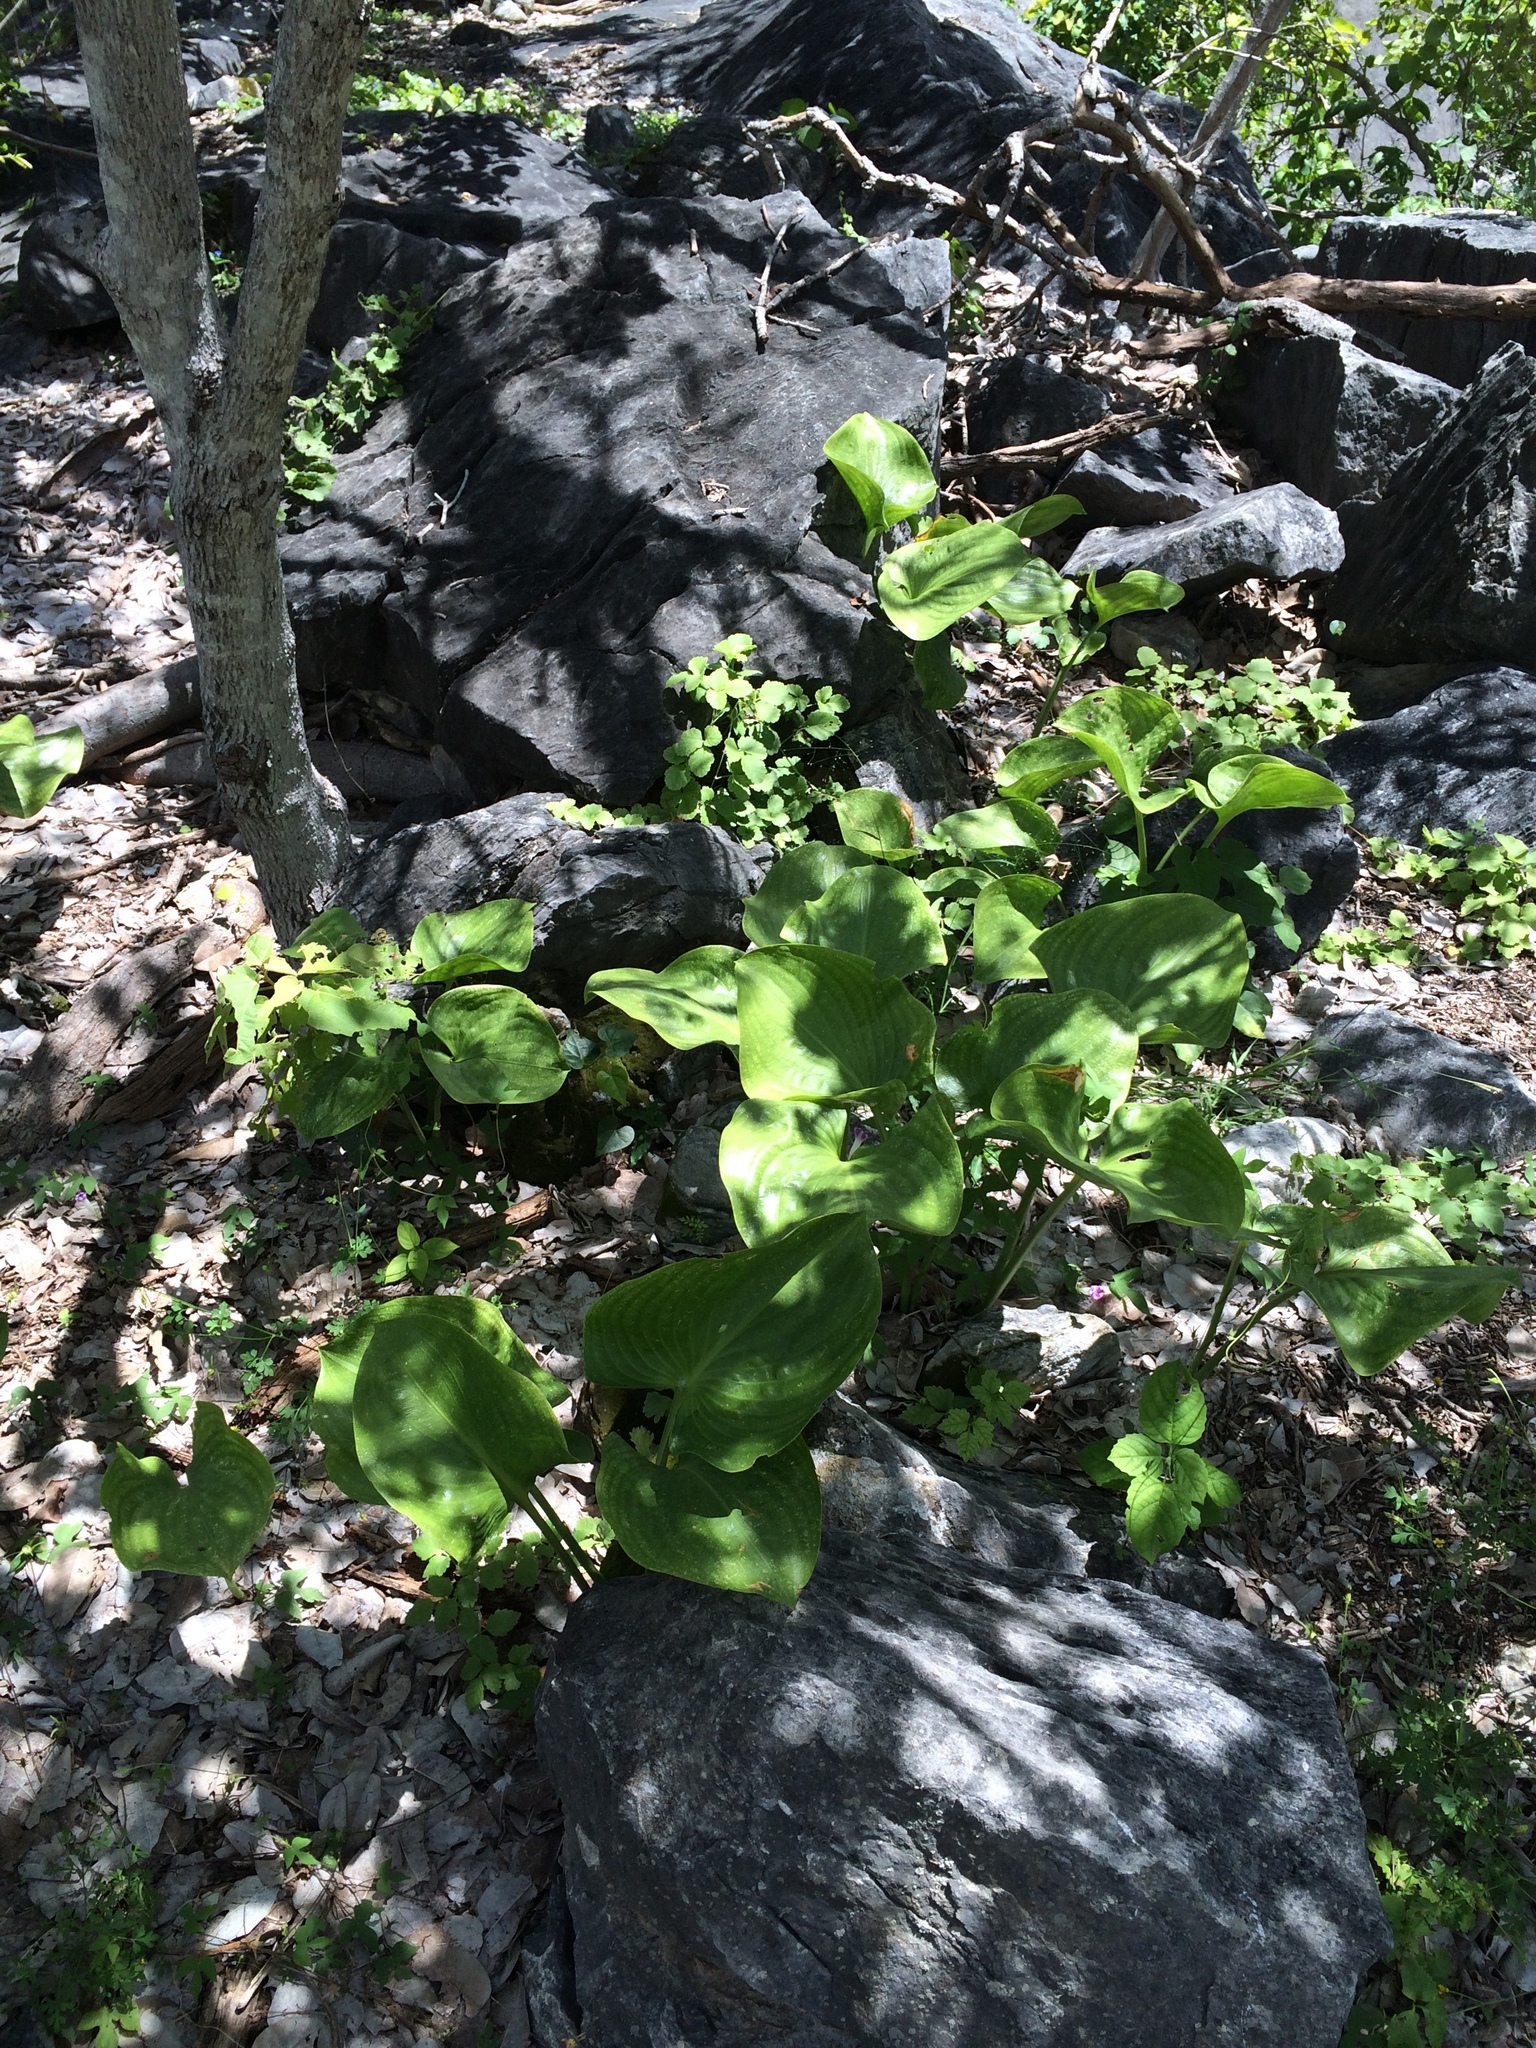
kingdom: Plantae
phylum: Tracheophyta
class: Liliopsida
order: Asparagales
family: Amaryllidaceae
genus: Proiphys
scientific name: Proiphys amboinensis
